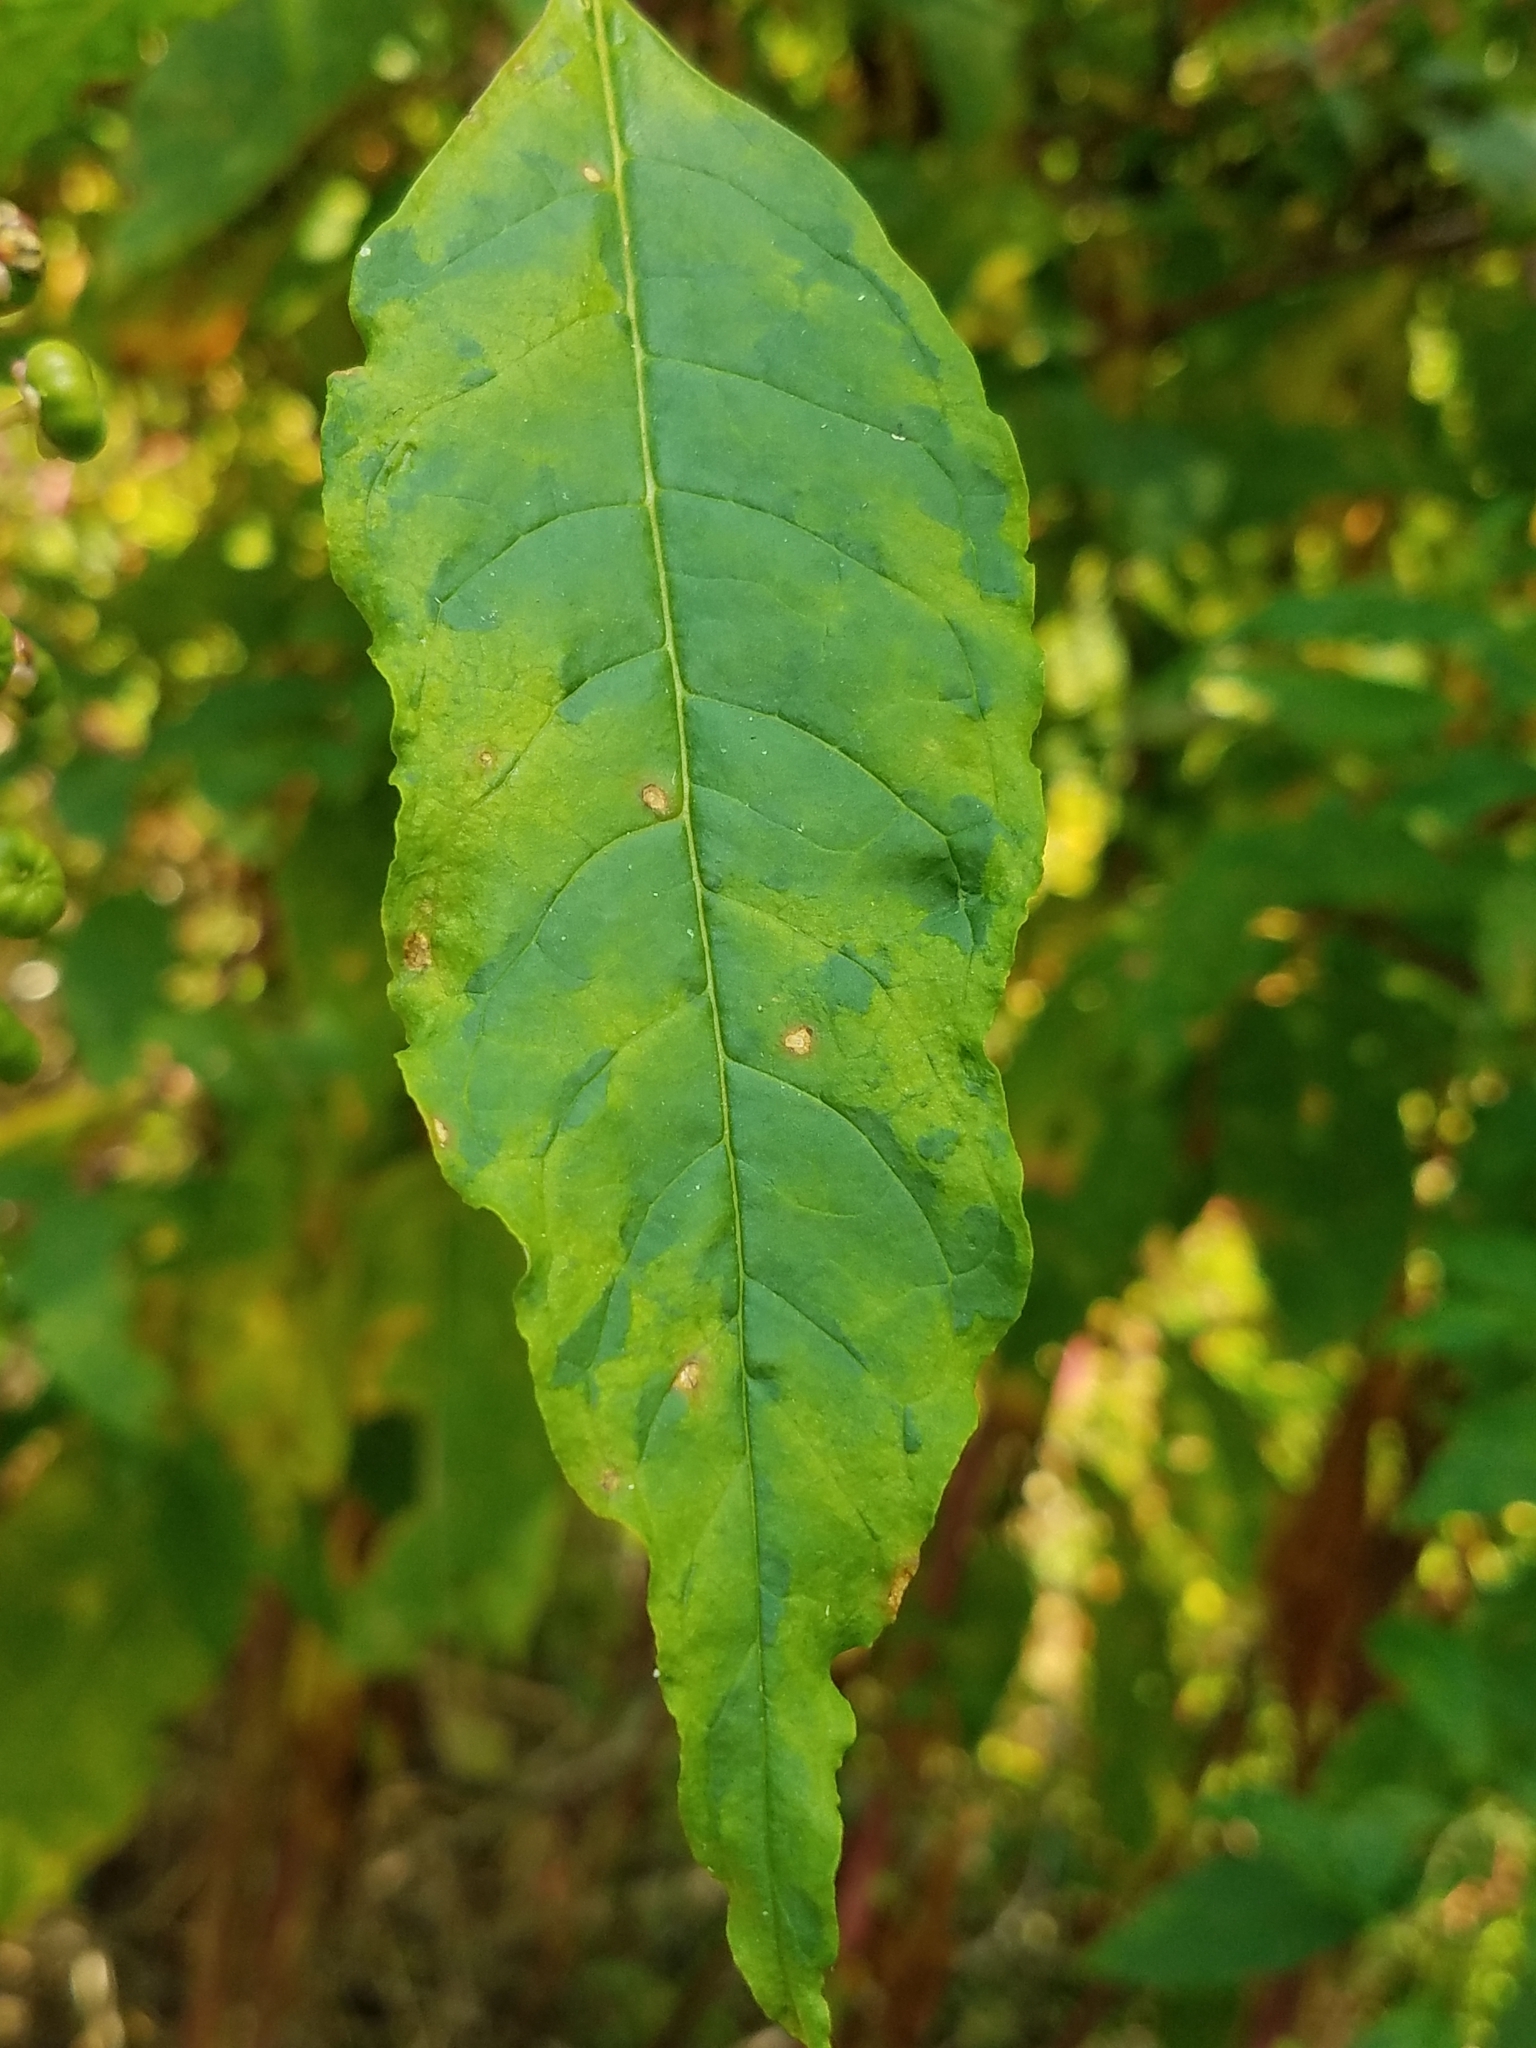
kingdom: Plantae
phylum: Tracheophyta
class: Magnoliopsida
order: Caryophyllales
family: Phytolaccaceae
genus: Phytolacca
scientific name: Phytolacca americana
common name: American pokeweed
